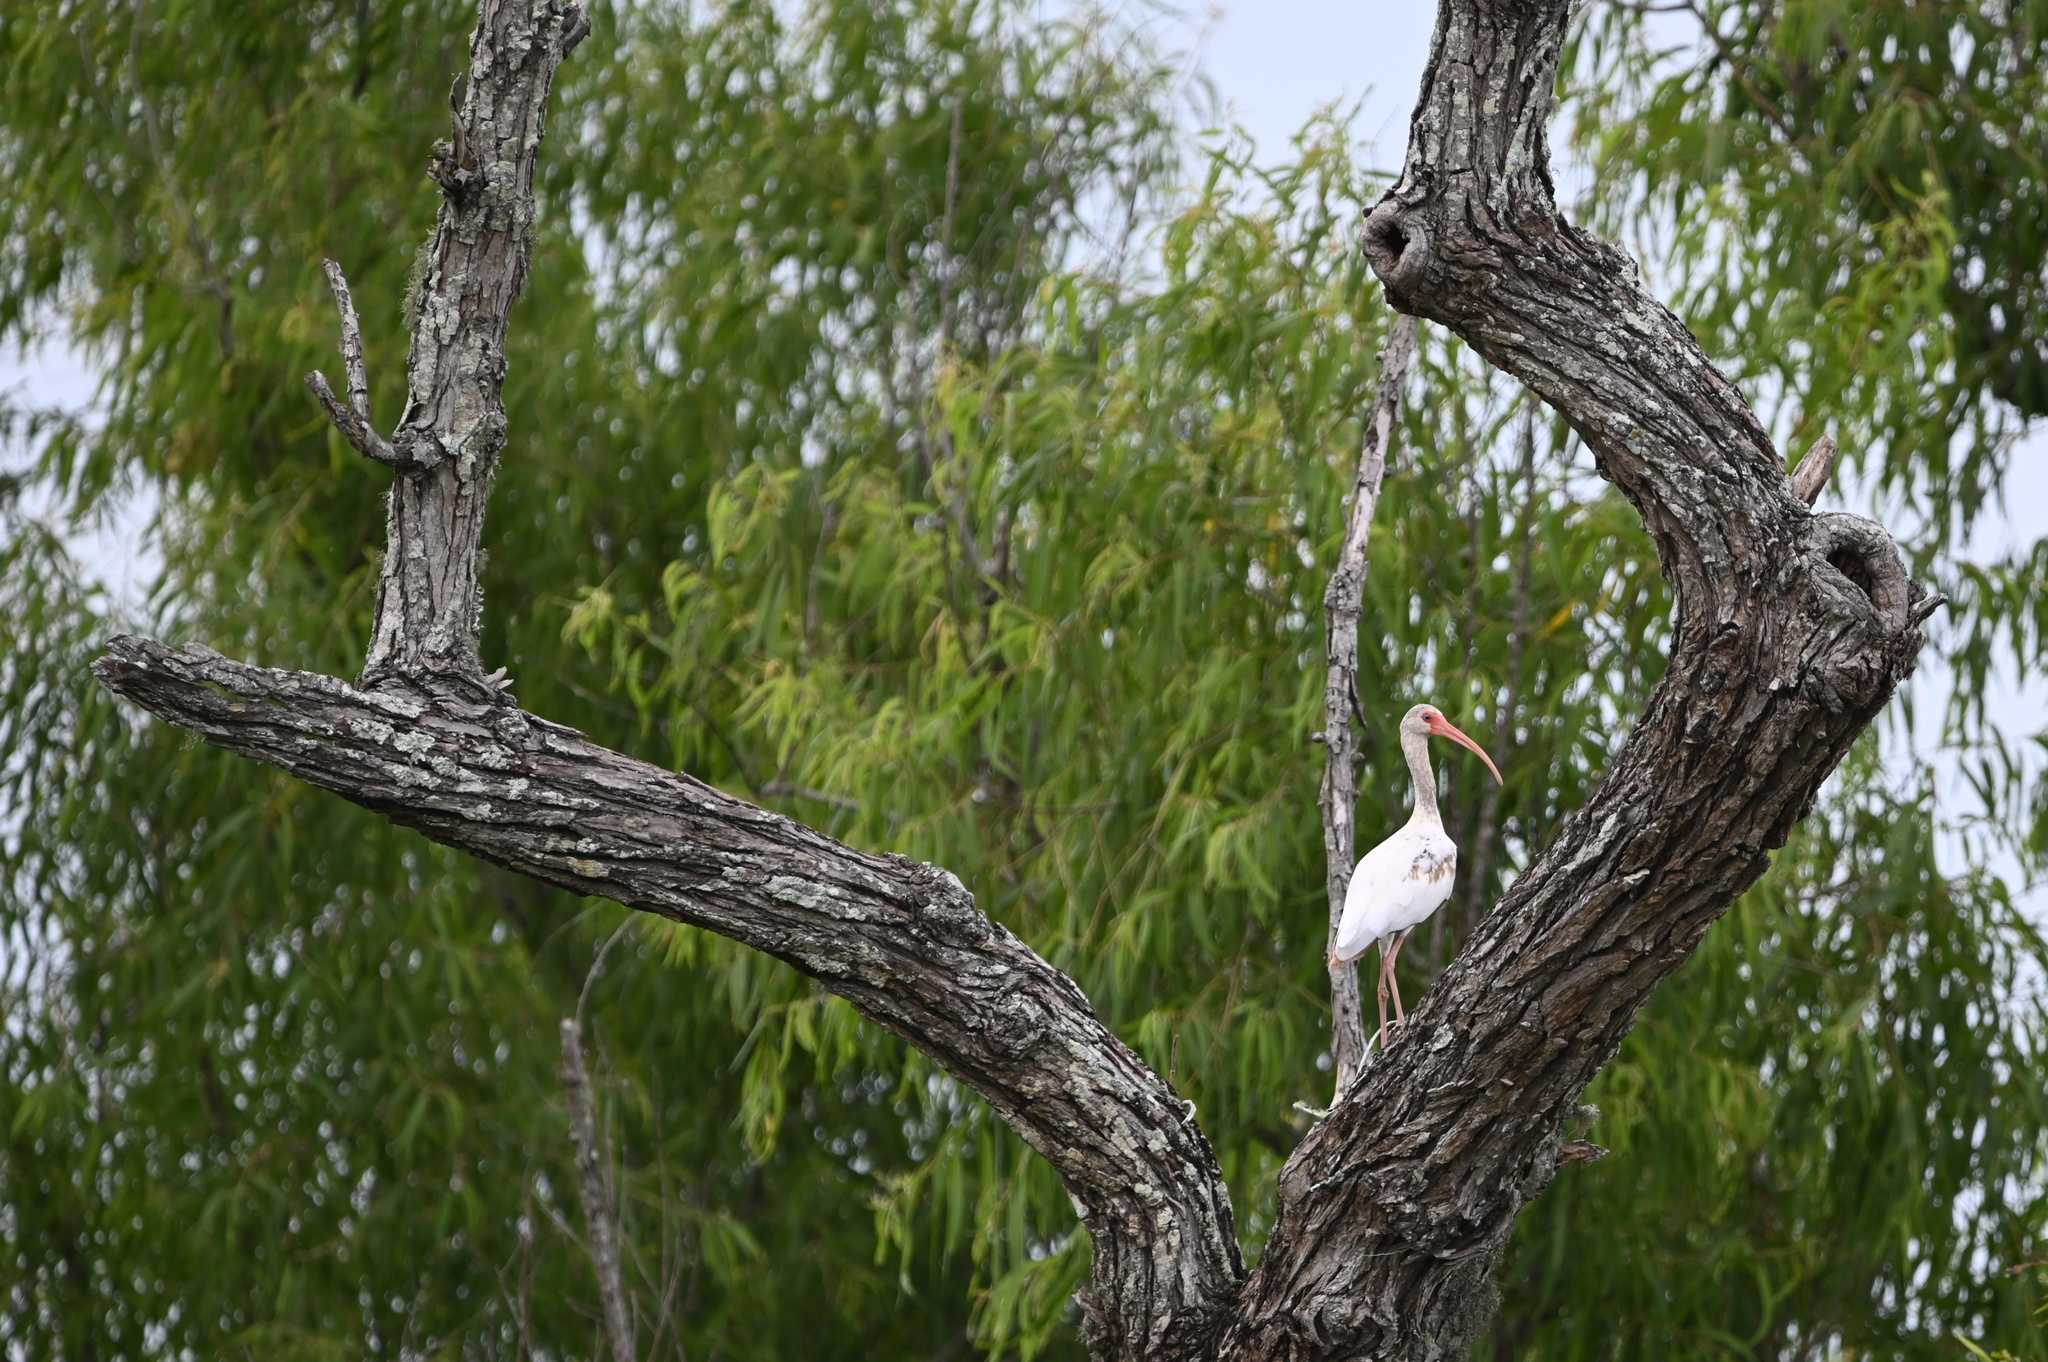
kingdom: Animalia
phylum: Chordata
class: Aves
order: Pelecaniformes
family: Threskiornithidae
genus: Eudocimus
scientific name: Eudocimus albus
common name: White ibis
